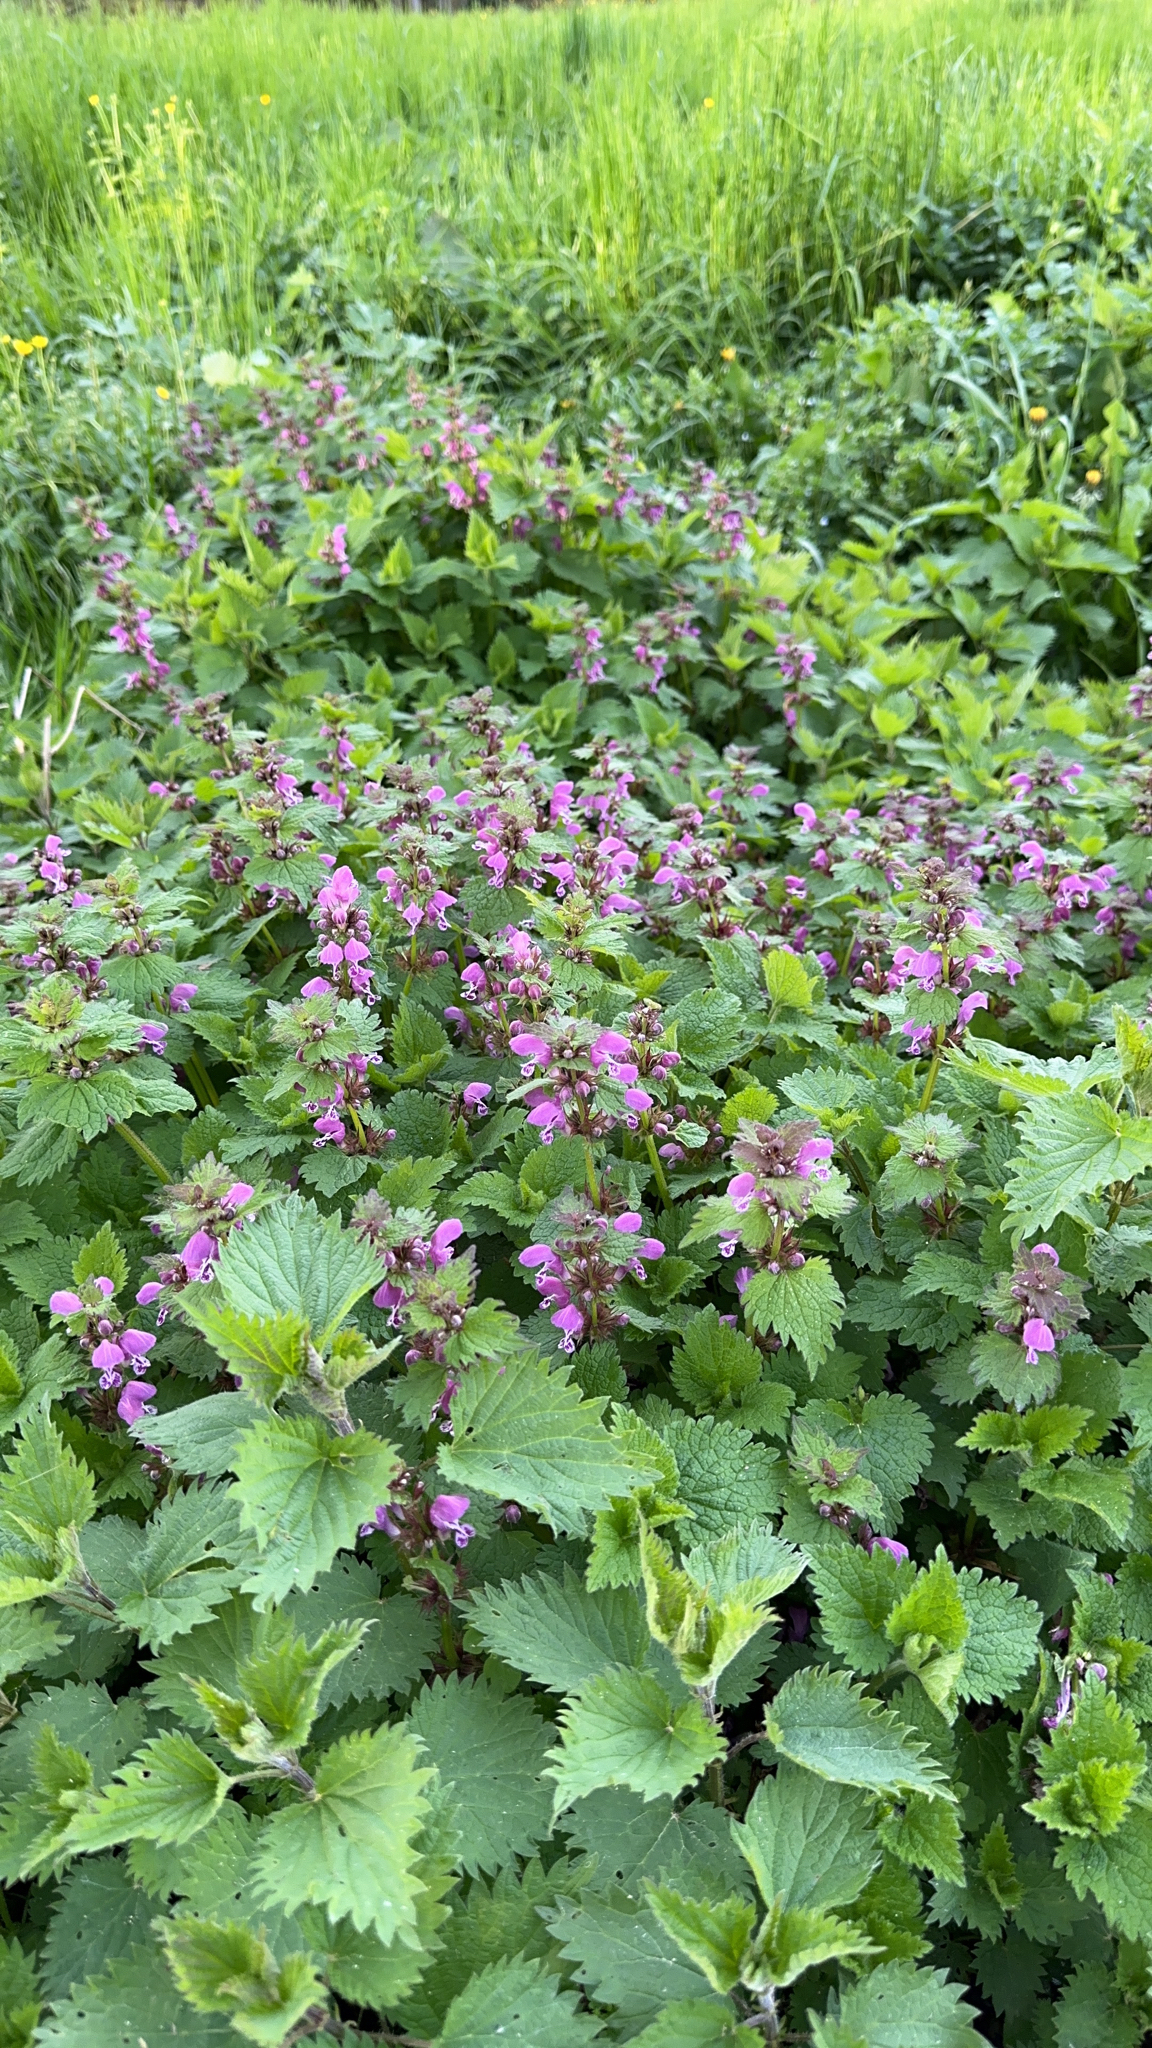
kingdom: Plantae
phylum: Tracheophyta
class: Magnoliopsida
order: Lamiales
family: Lamiaceae
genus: Lamium
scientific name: Lamium maculatum
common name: Spotted dead-nettle
